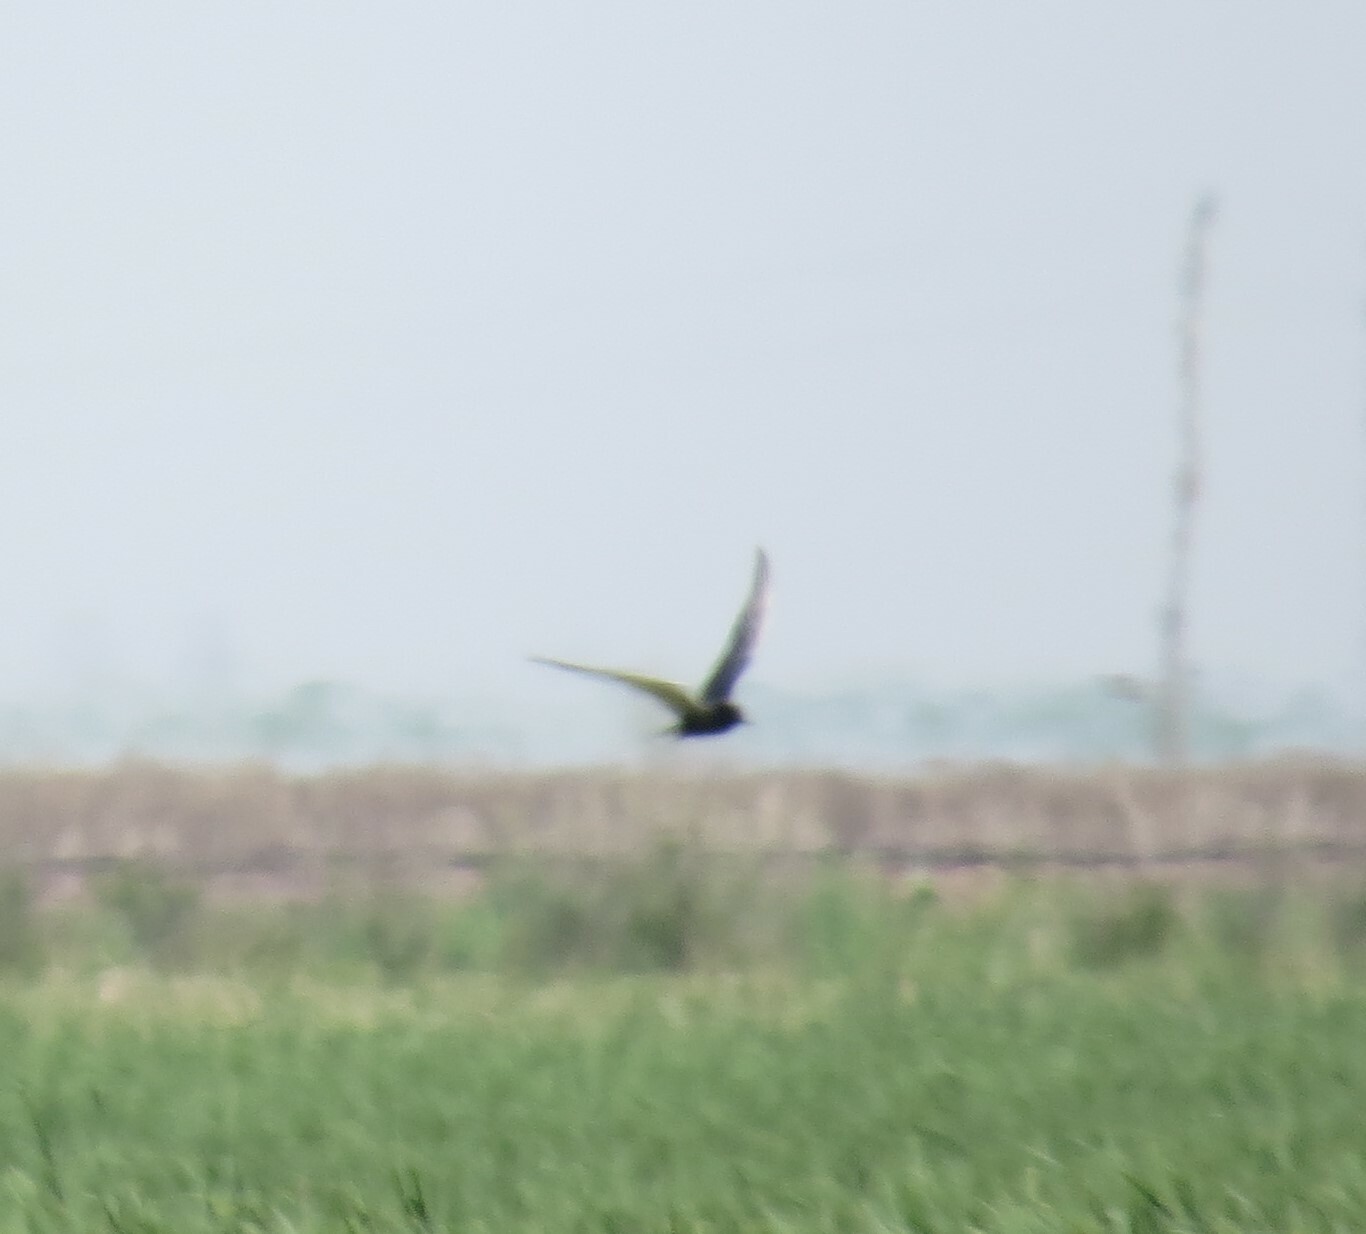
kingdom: Animalia
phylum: Chordata
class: Aves
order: Charadriiformes
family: Laridae
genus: Chlidonias
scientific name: Chlidonias niger
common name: Black tern
